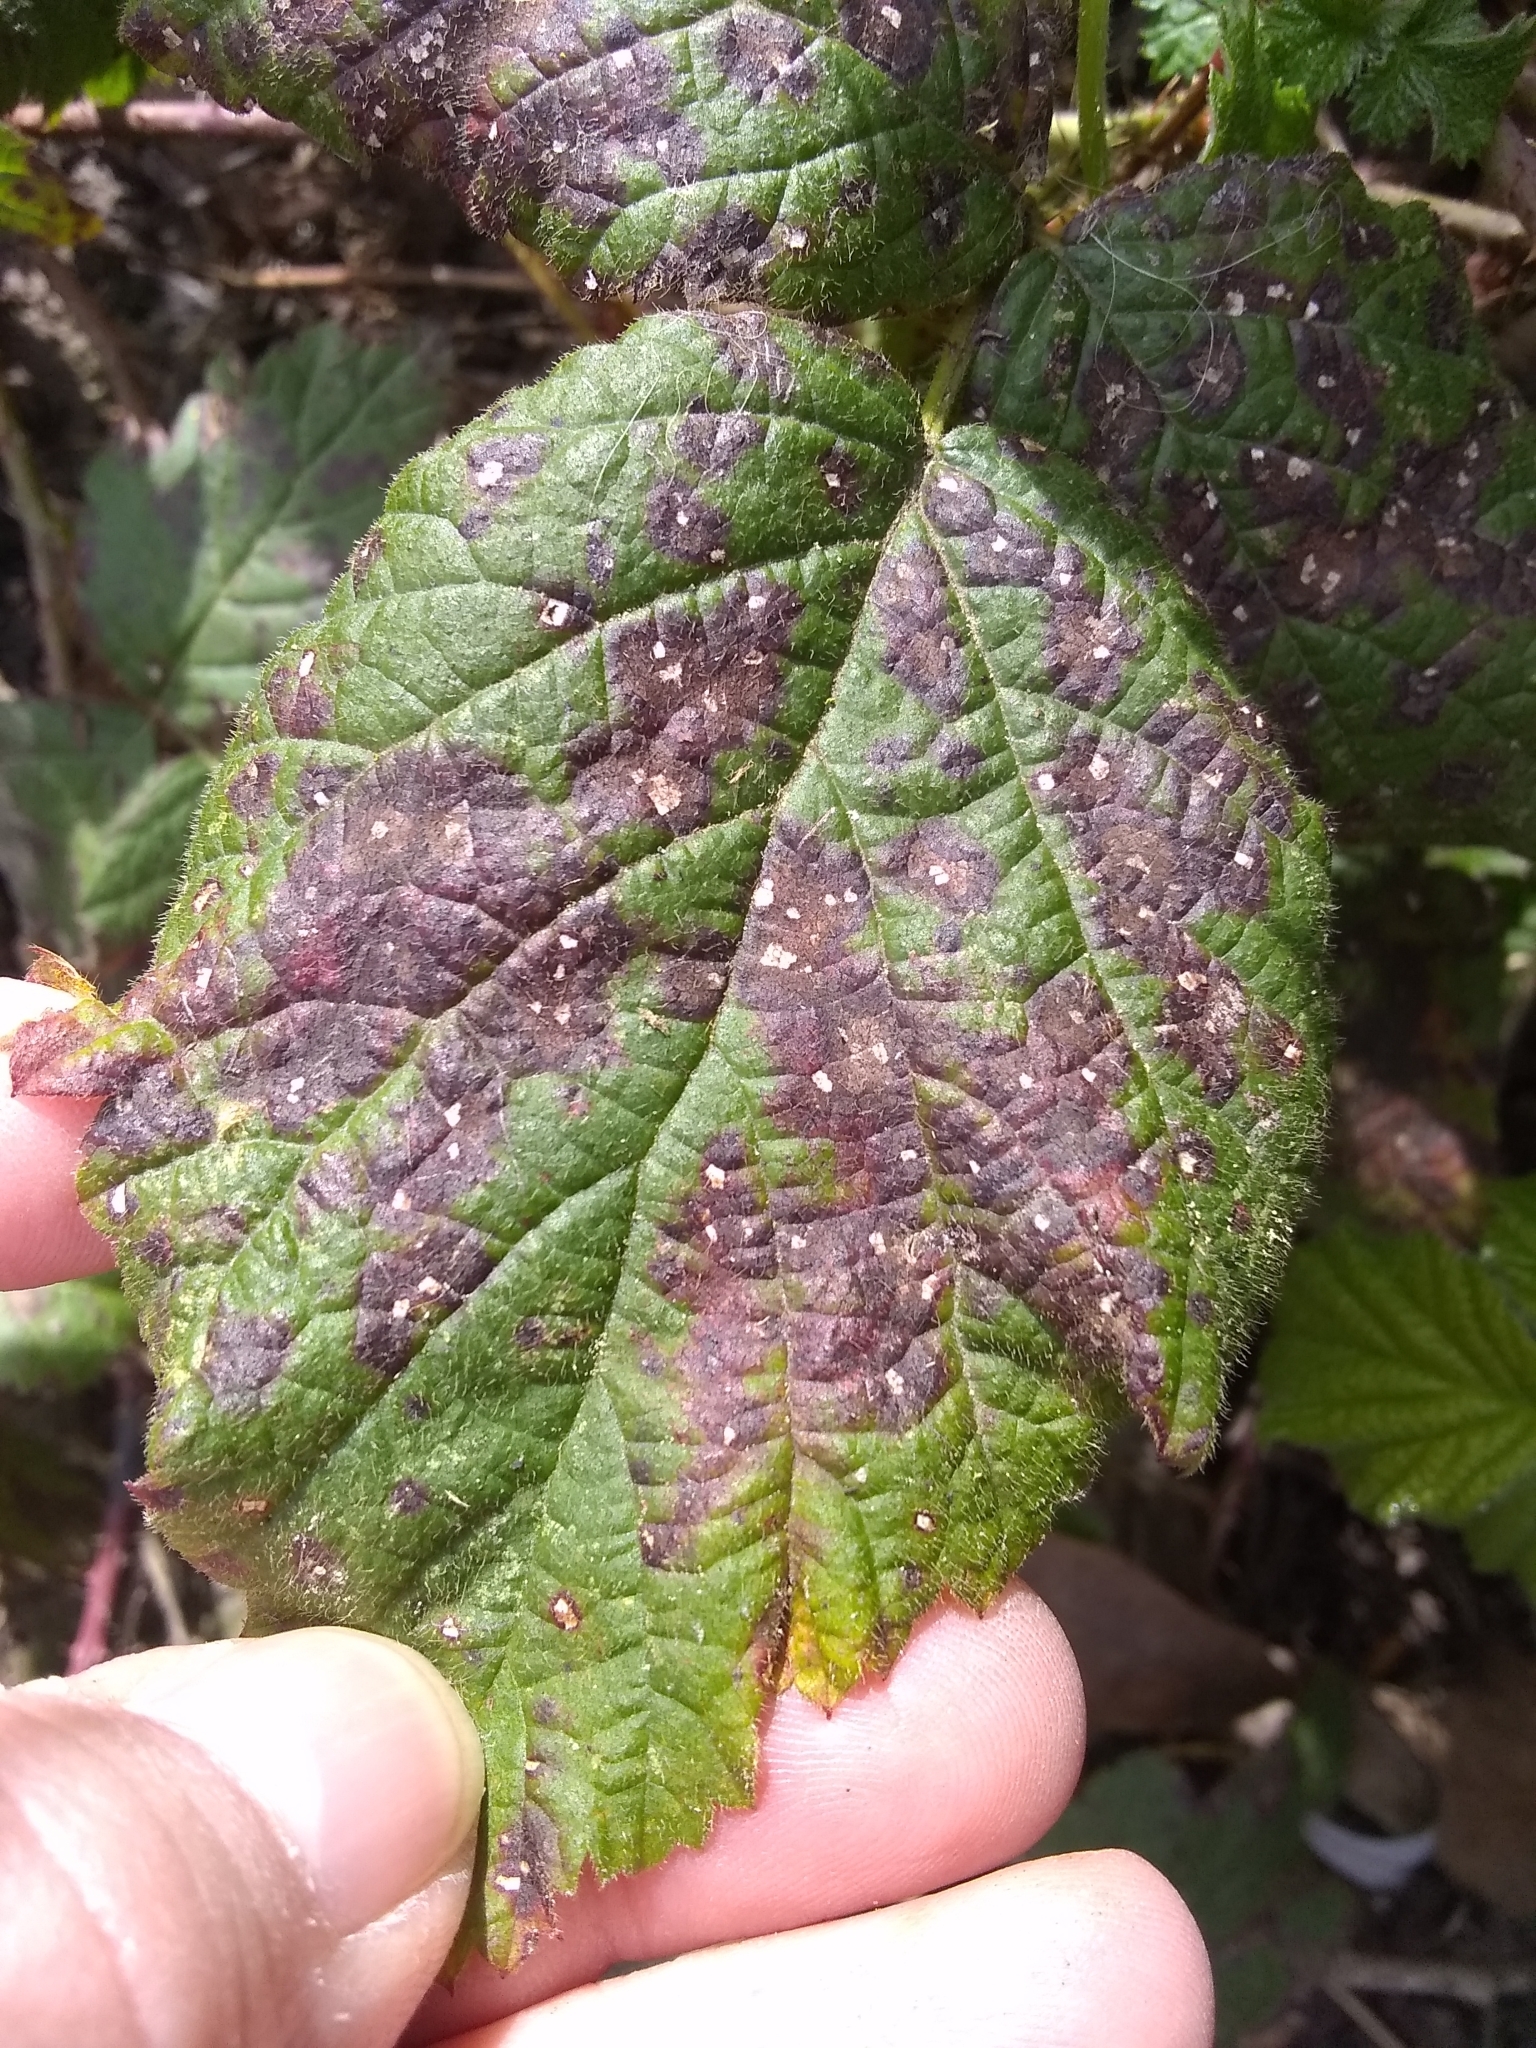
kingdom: Fungi
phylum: Basidiomycota
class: Pucciniomycetes
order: Pucciniales
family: Phragmidiaceae
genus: Phragmidium
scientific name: Phragmidium violaceum
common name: Violet bramble rust
